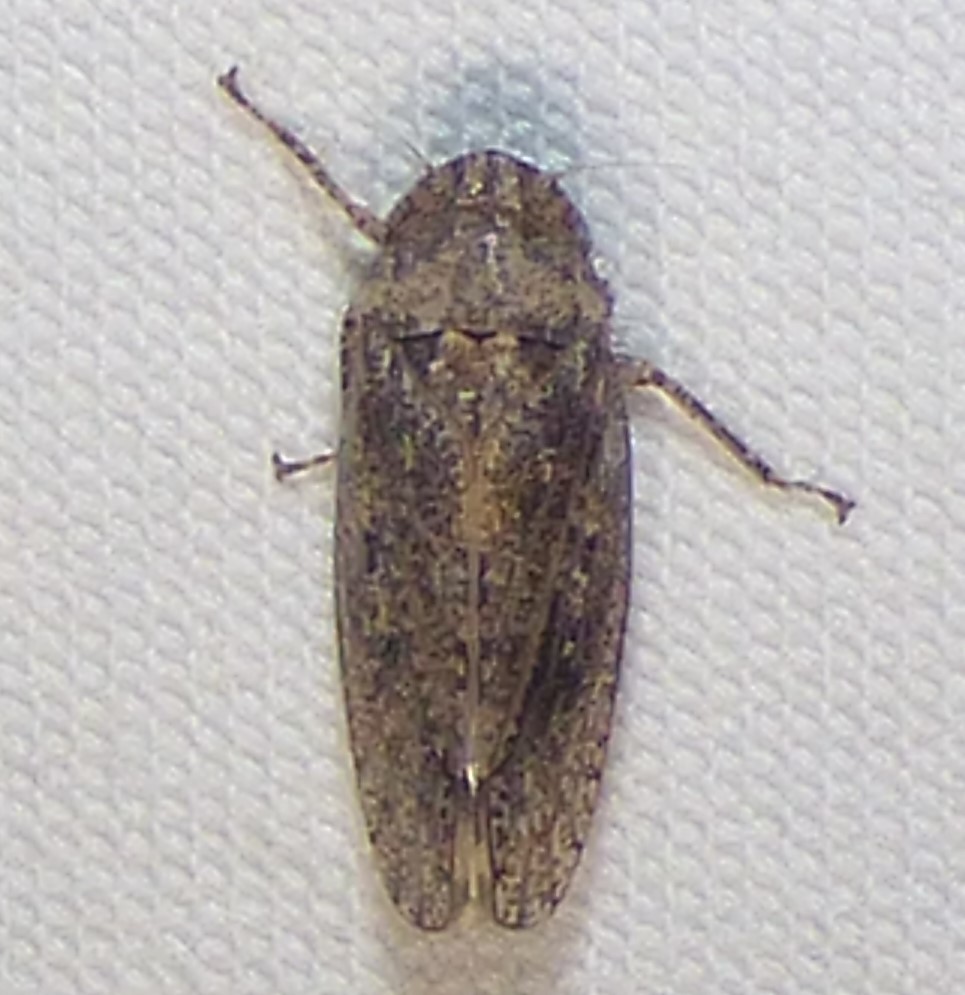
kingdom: Animalia
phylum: Arthropoda
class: Insecta
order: Hemiptera
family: Cicadellidae
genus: Curtara
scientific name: Curtara insularis
